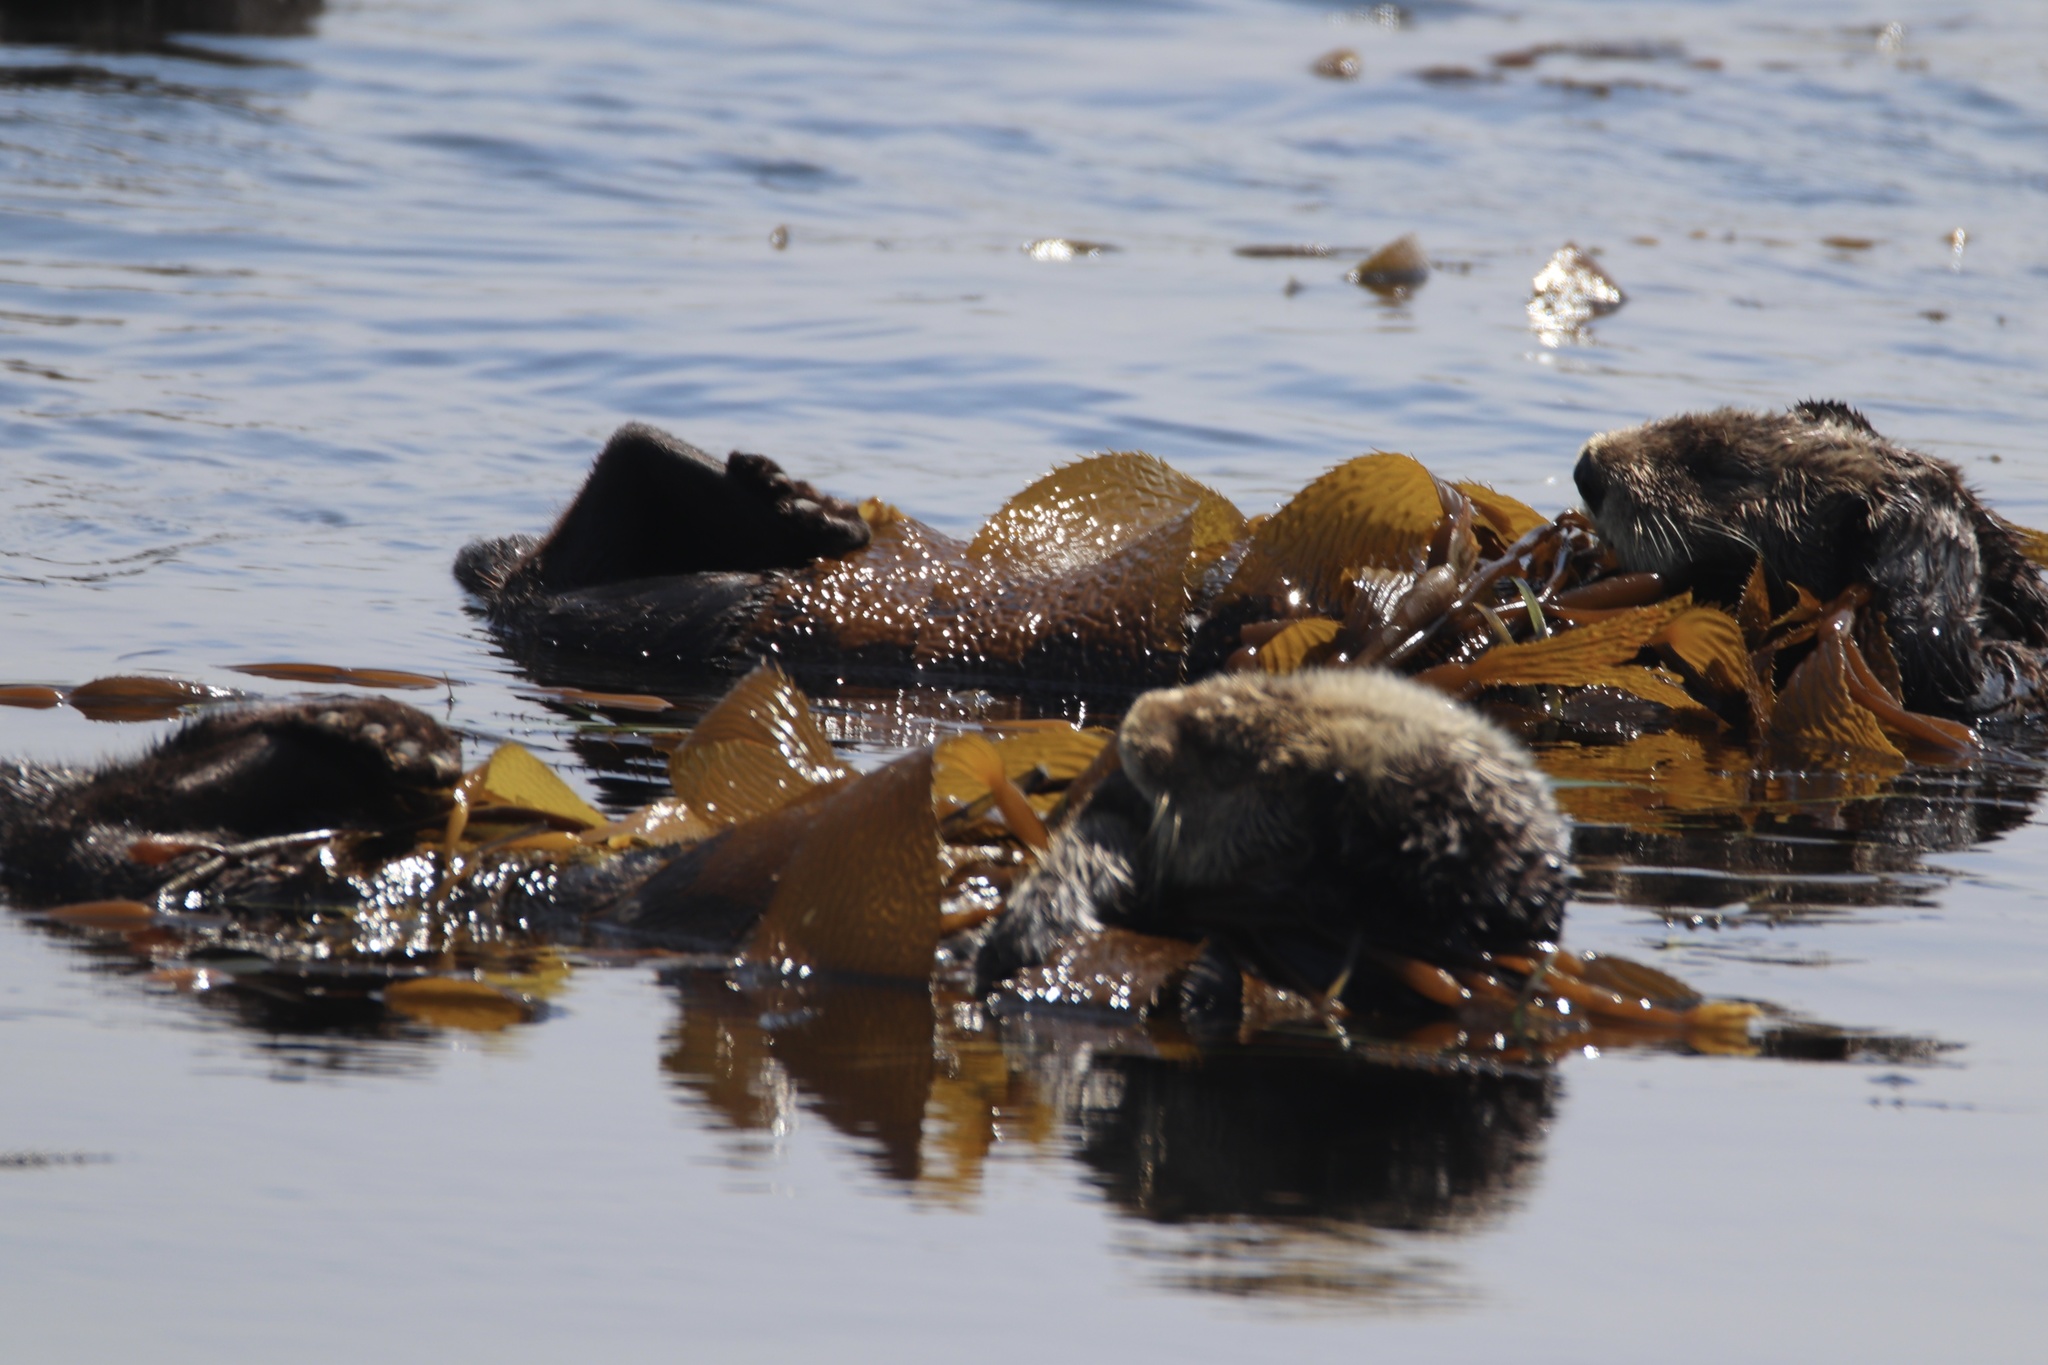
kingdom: Animalia
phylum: Chordata
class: Mammalia
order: Carnivora
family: Mustelidae
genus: Enhydra
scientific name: Enhydra lutris
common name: Sea otter
